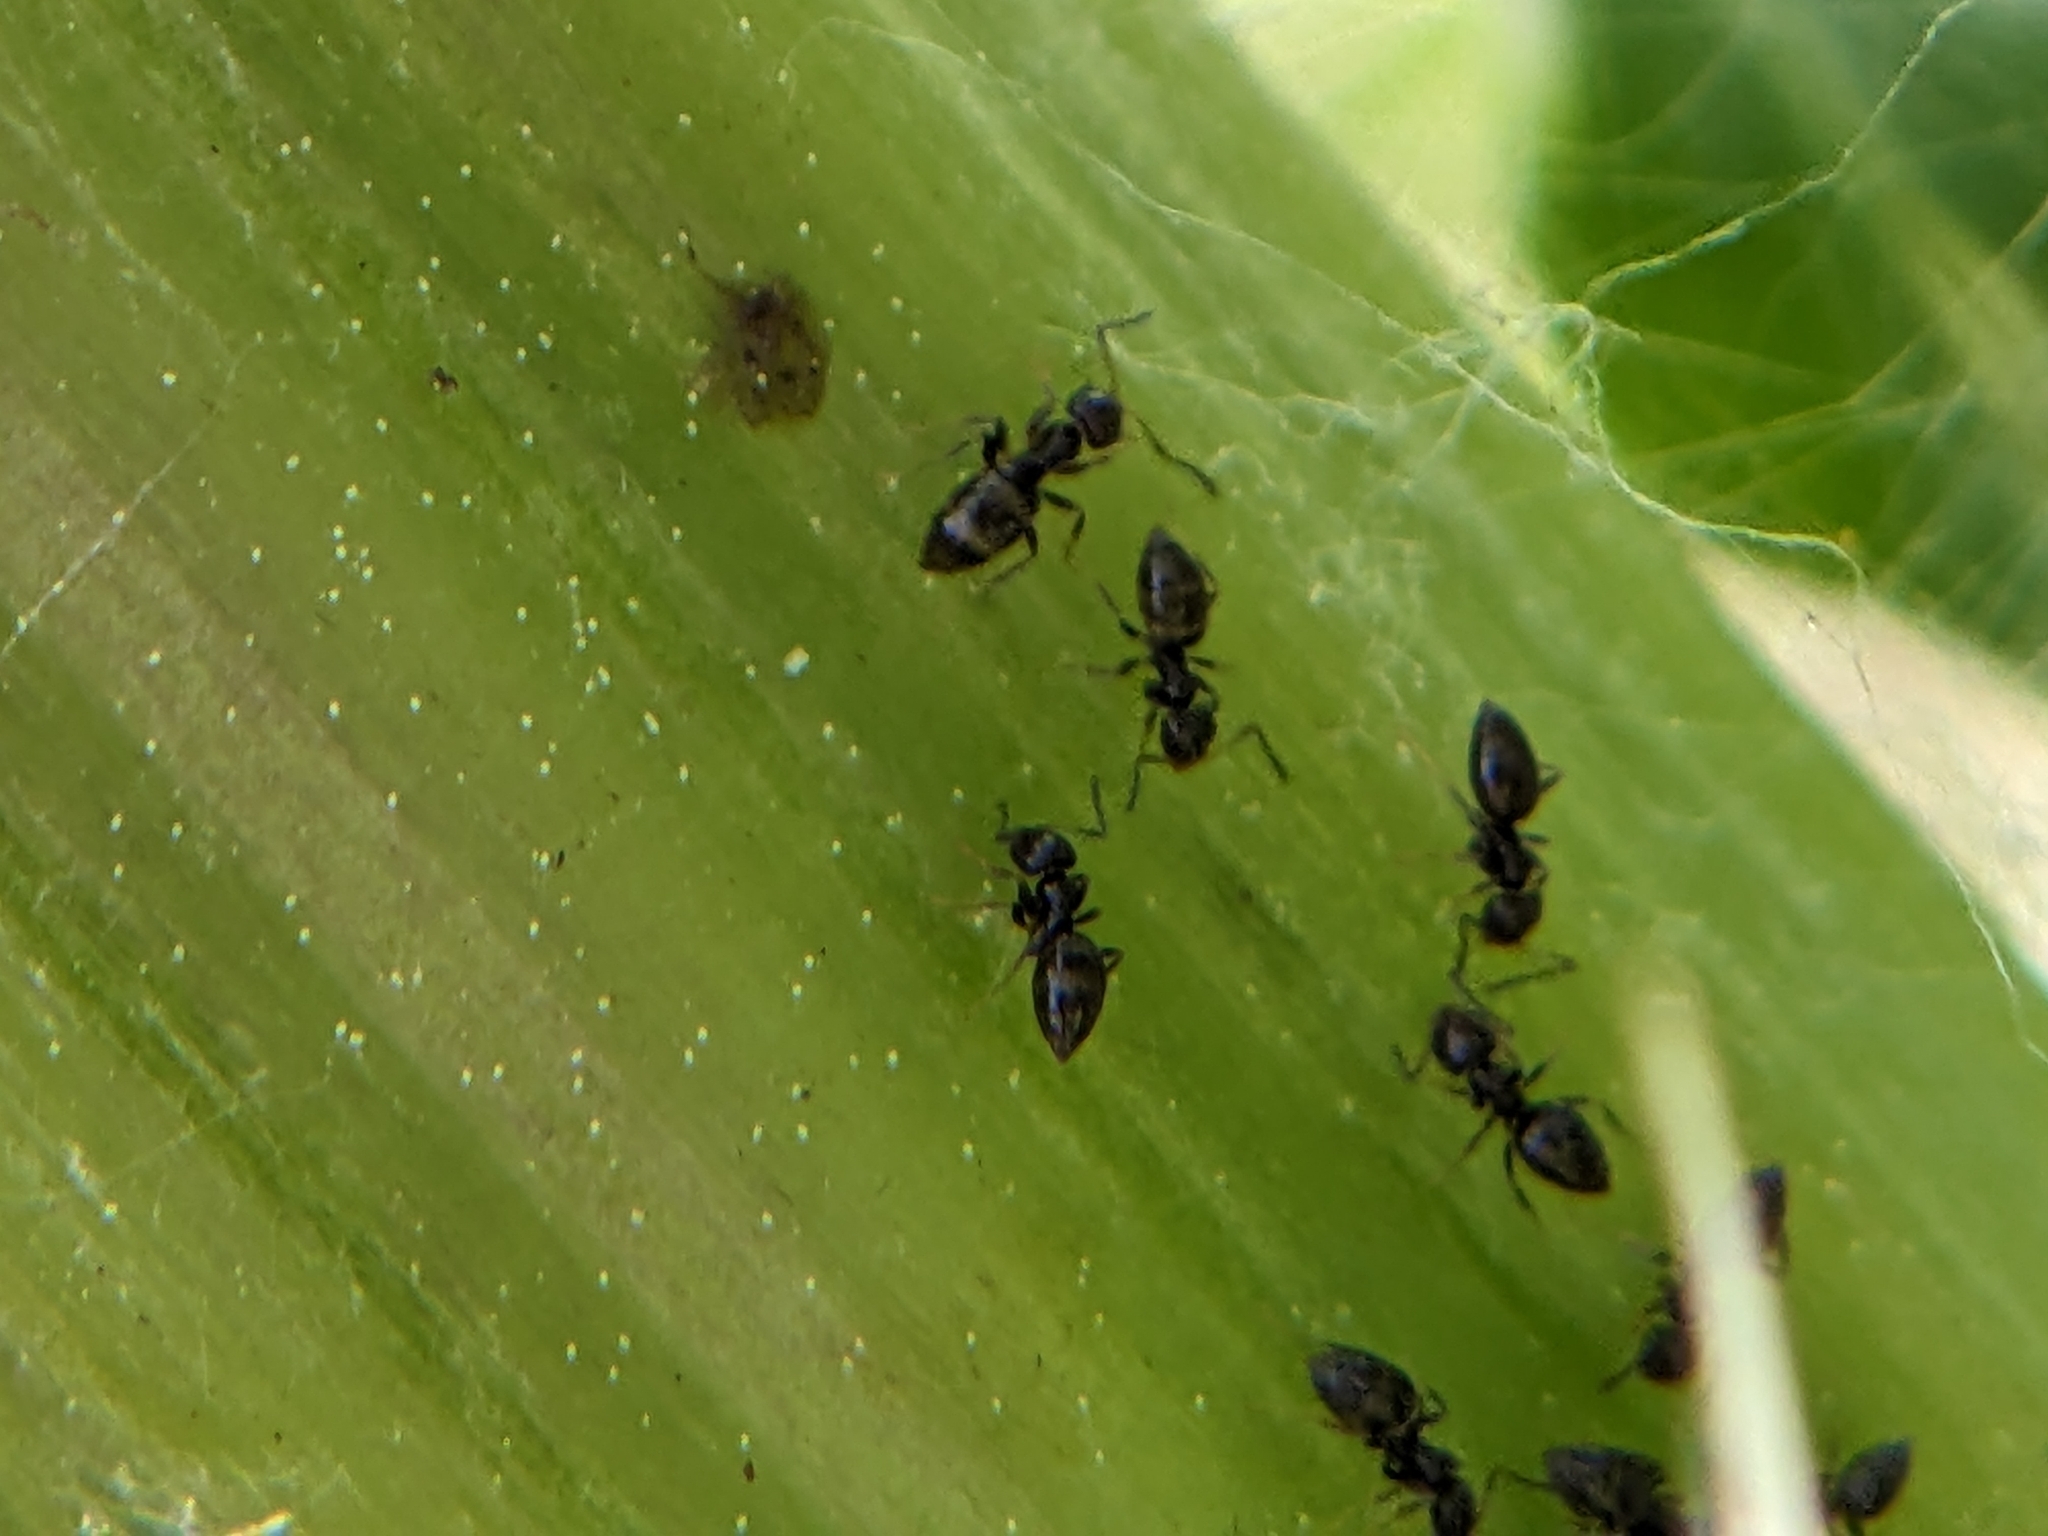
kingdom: Animalia
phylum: Arthropoda
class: Insecta
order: Hymenoptera
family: Formicidae
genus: Brachymyrmex
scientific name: Brachymyrmex patagonicus
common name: Dark rover ant
